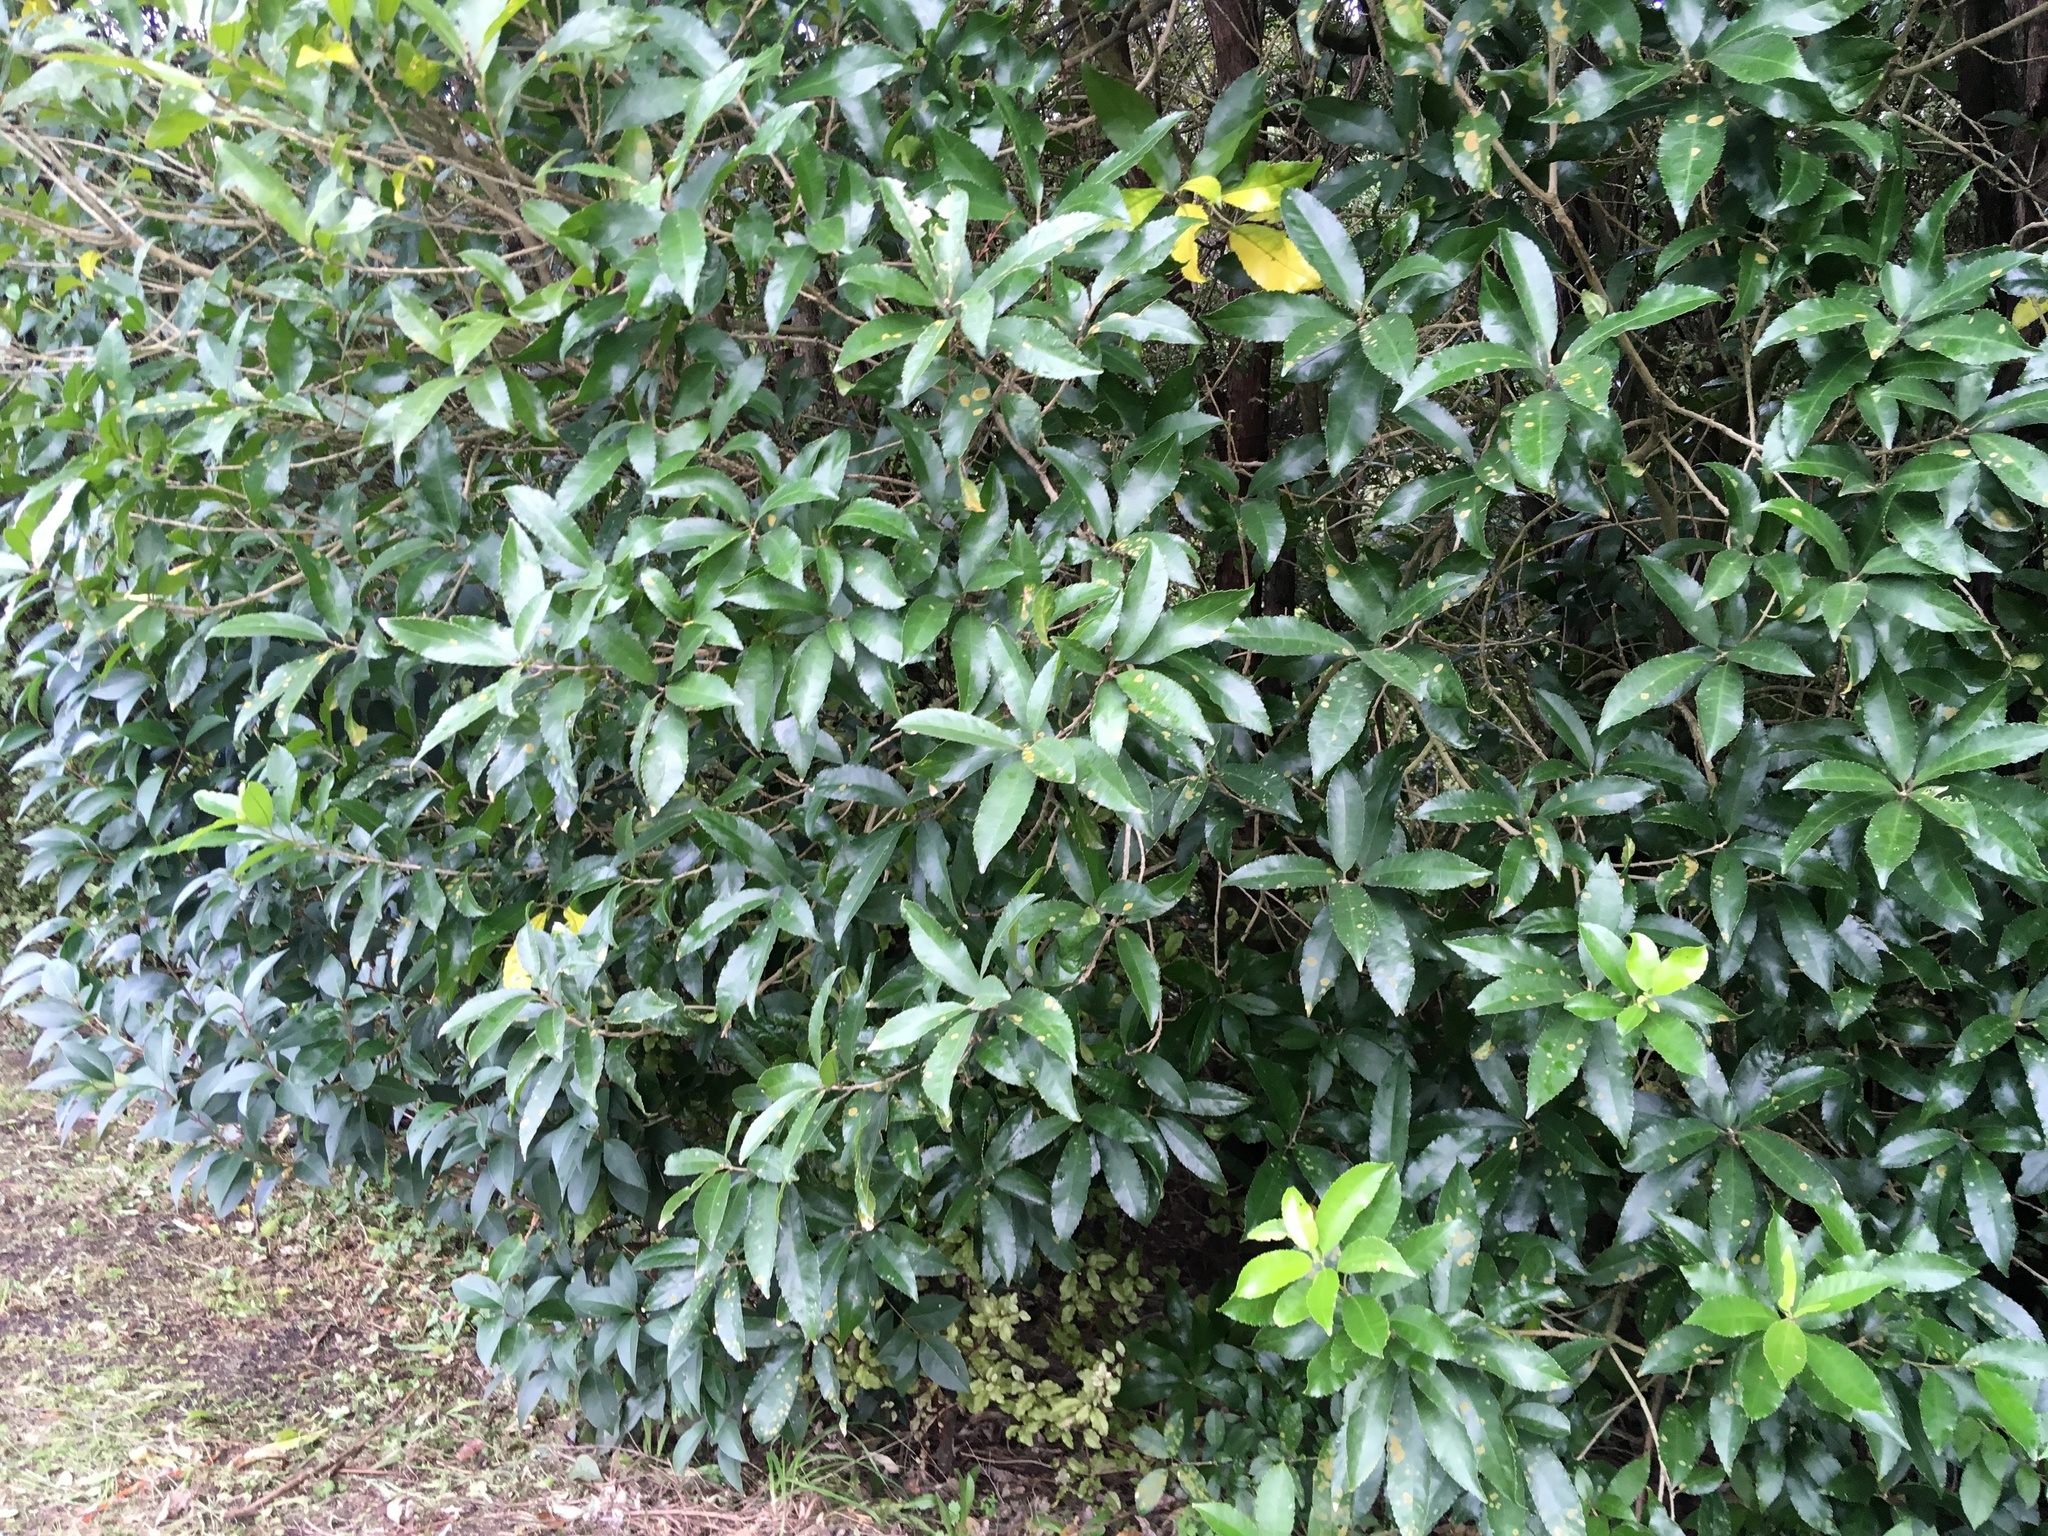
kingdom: Plantae
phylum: Tracheophyta
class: Magnoliopsida
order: Malpighiales
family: Violaceae
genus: Melicytus
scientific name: Melicytus ramiflorus
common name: Mahoe
